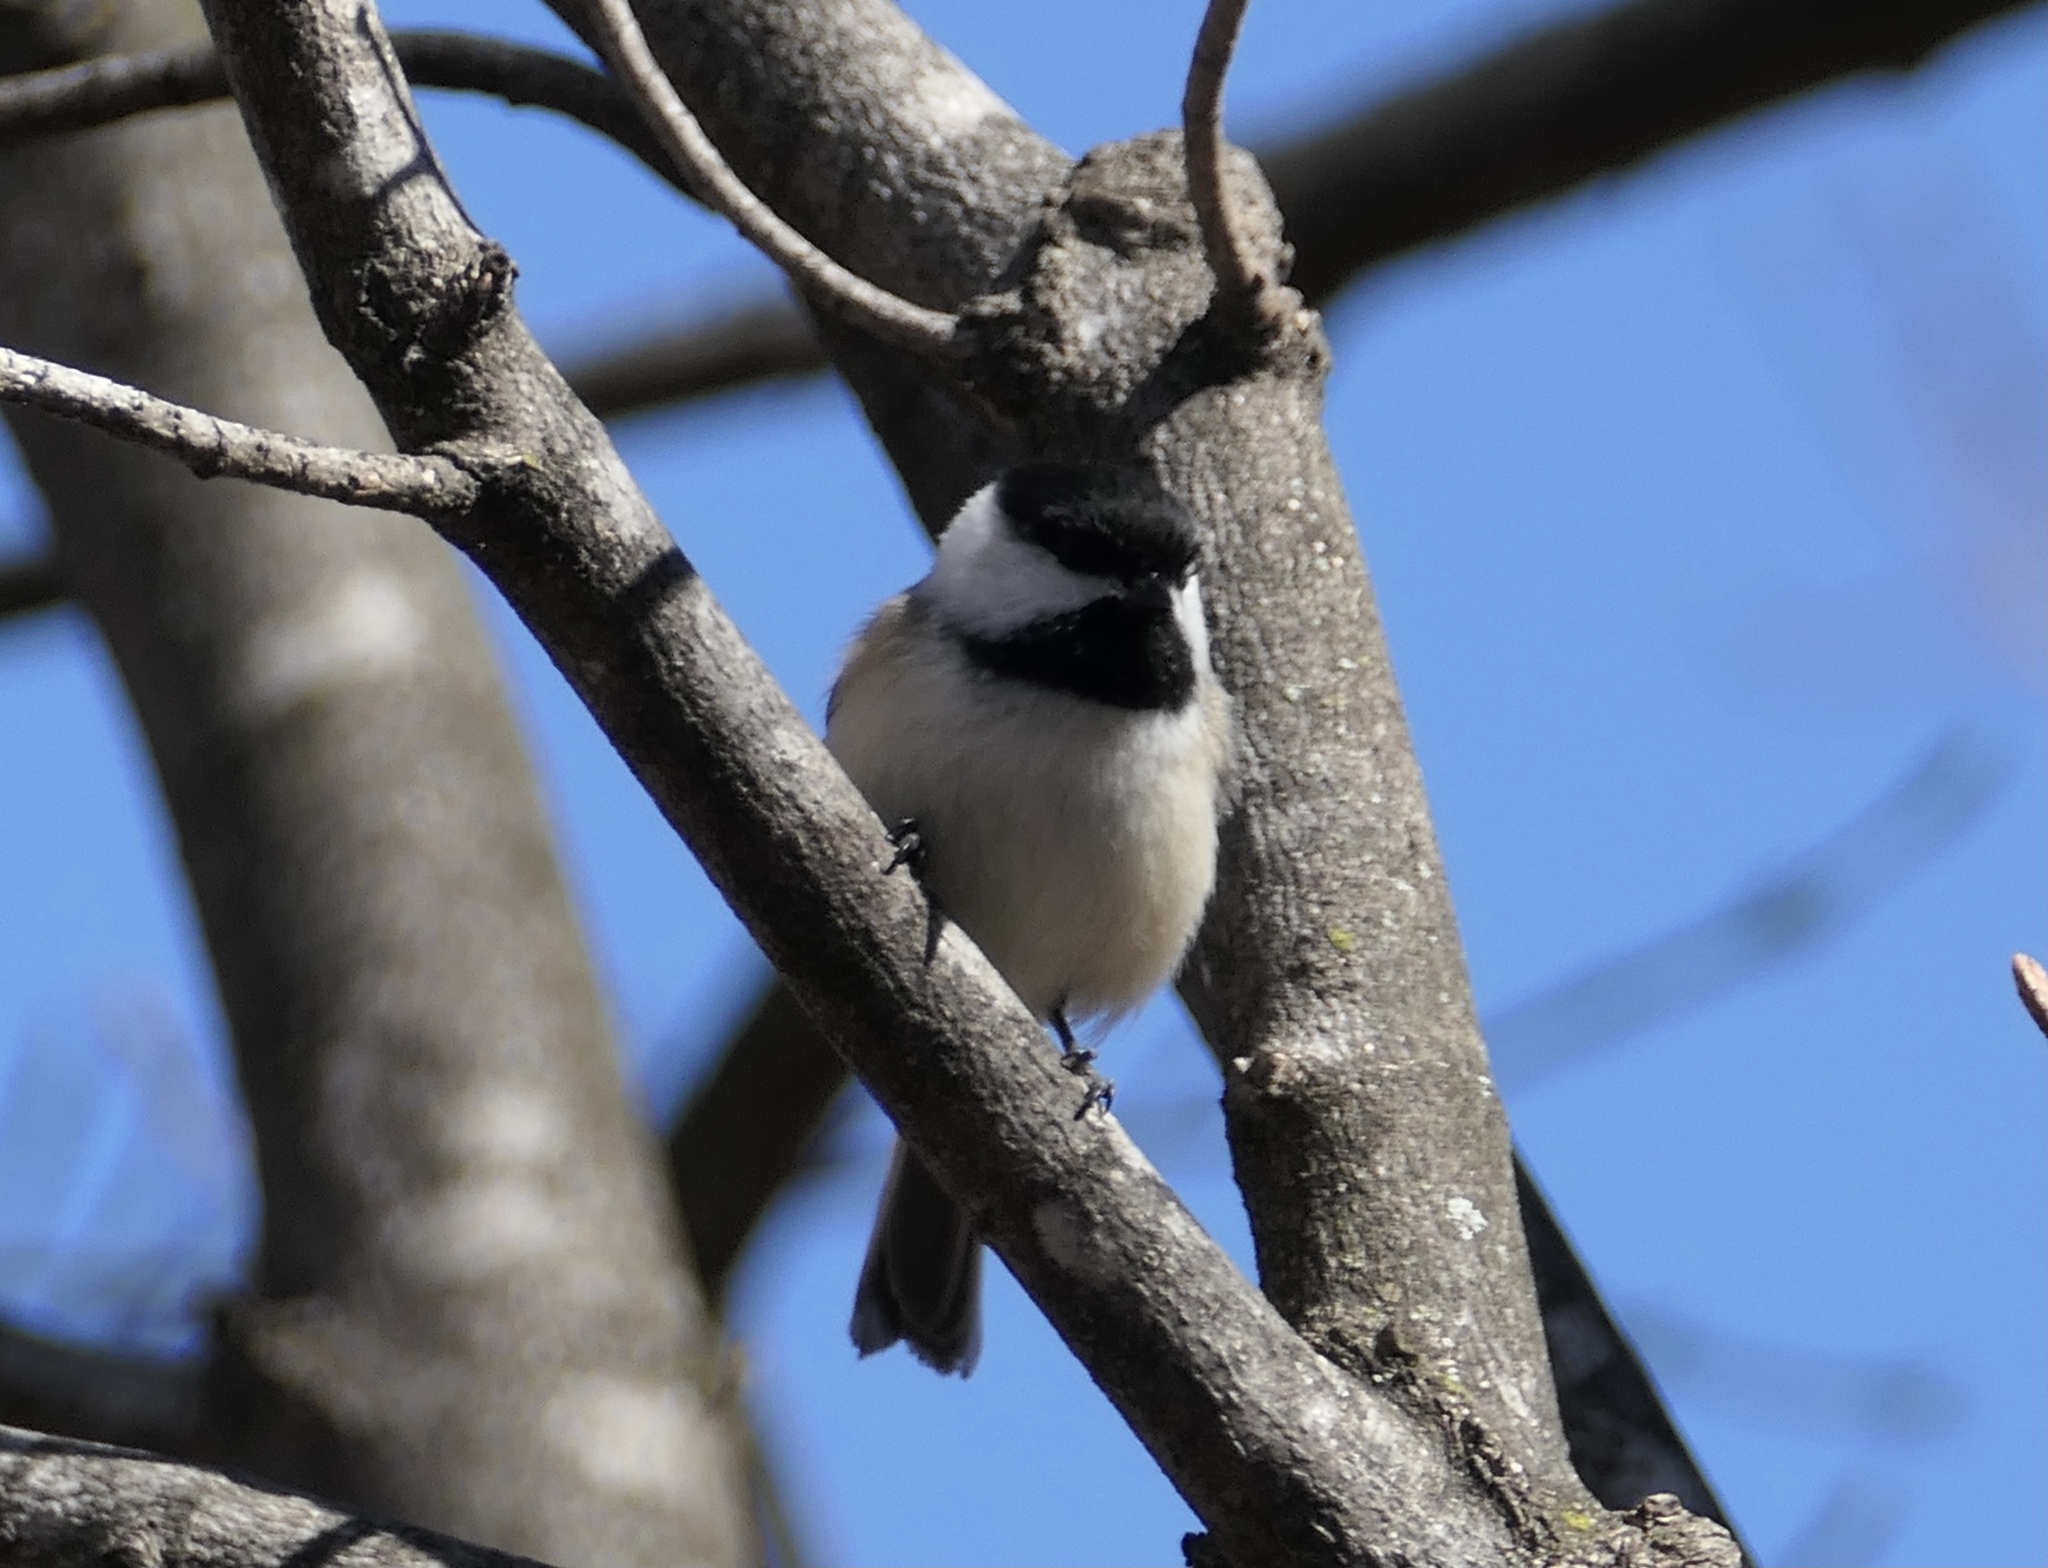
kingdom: Animalia
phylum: Chordata
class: Aves
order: Passeriformes
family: Paridae
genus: Poecile
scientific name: Poecile atricapillus
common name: Black-capped chickadee
